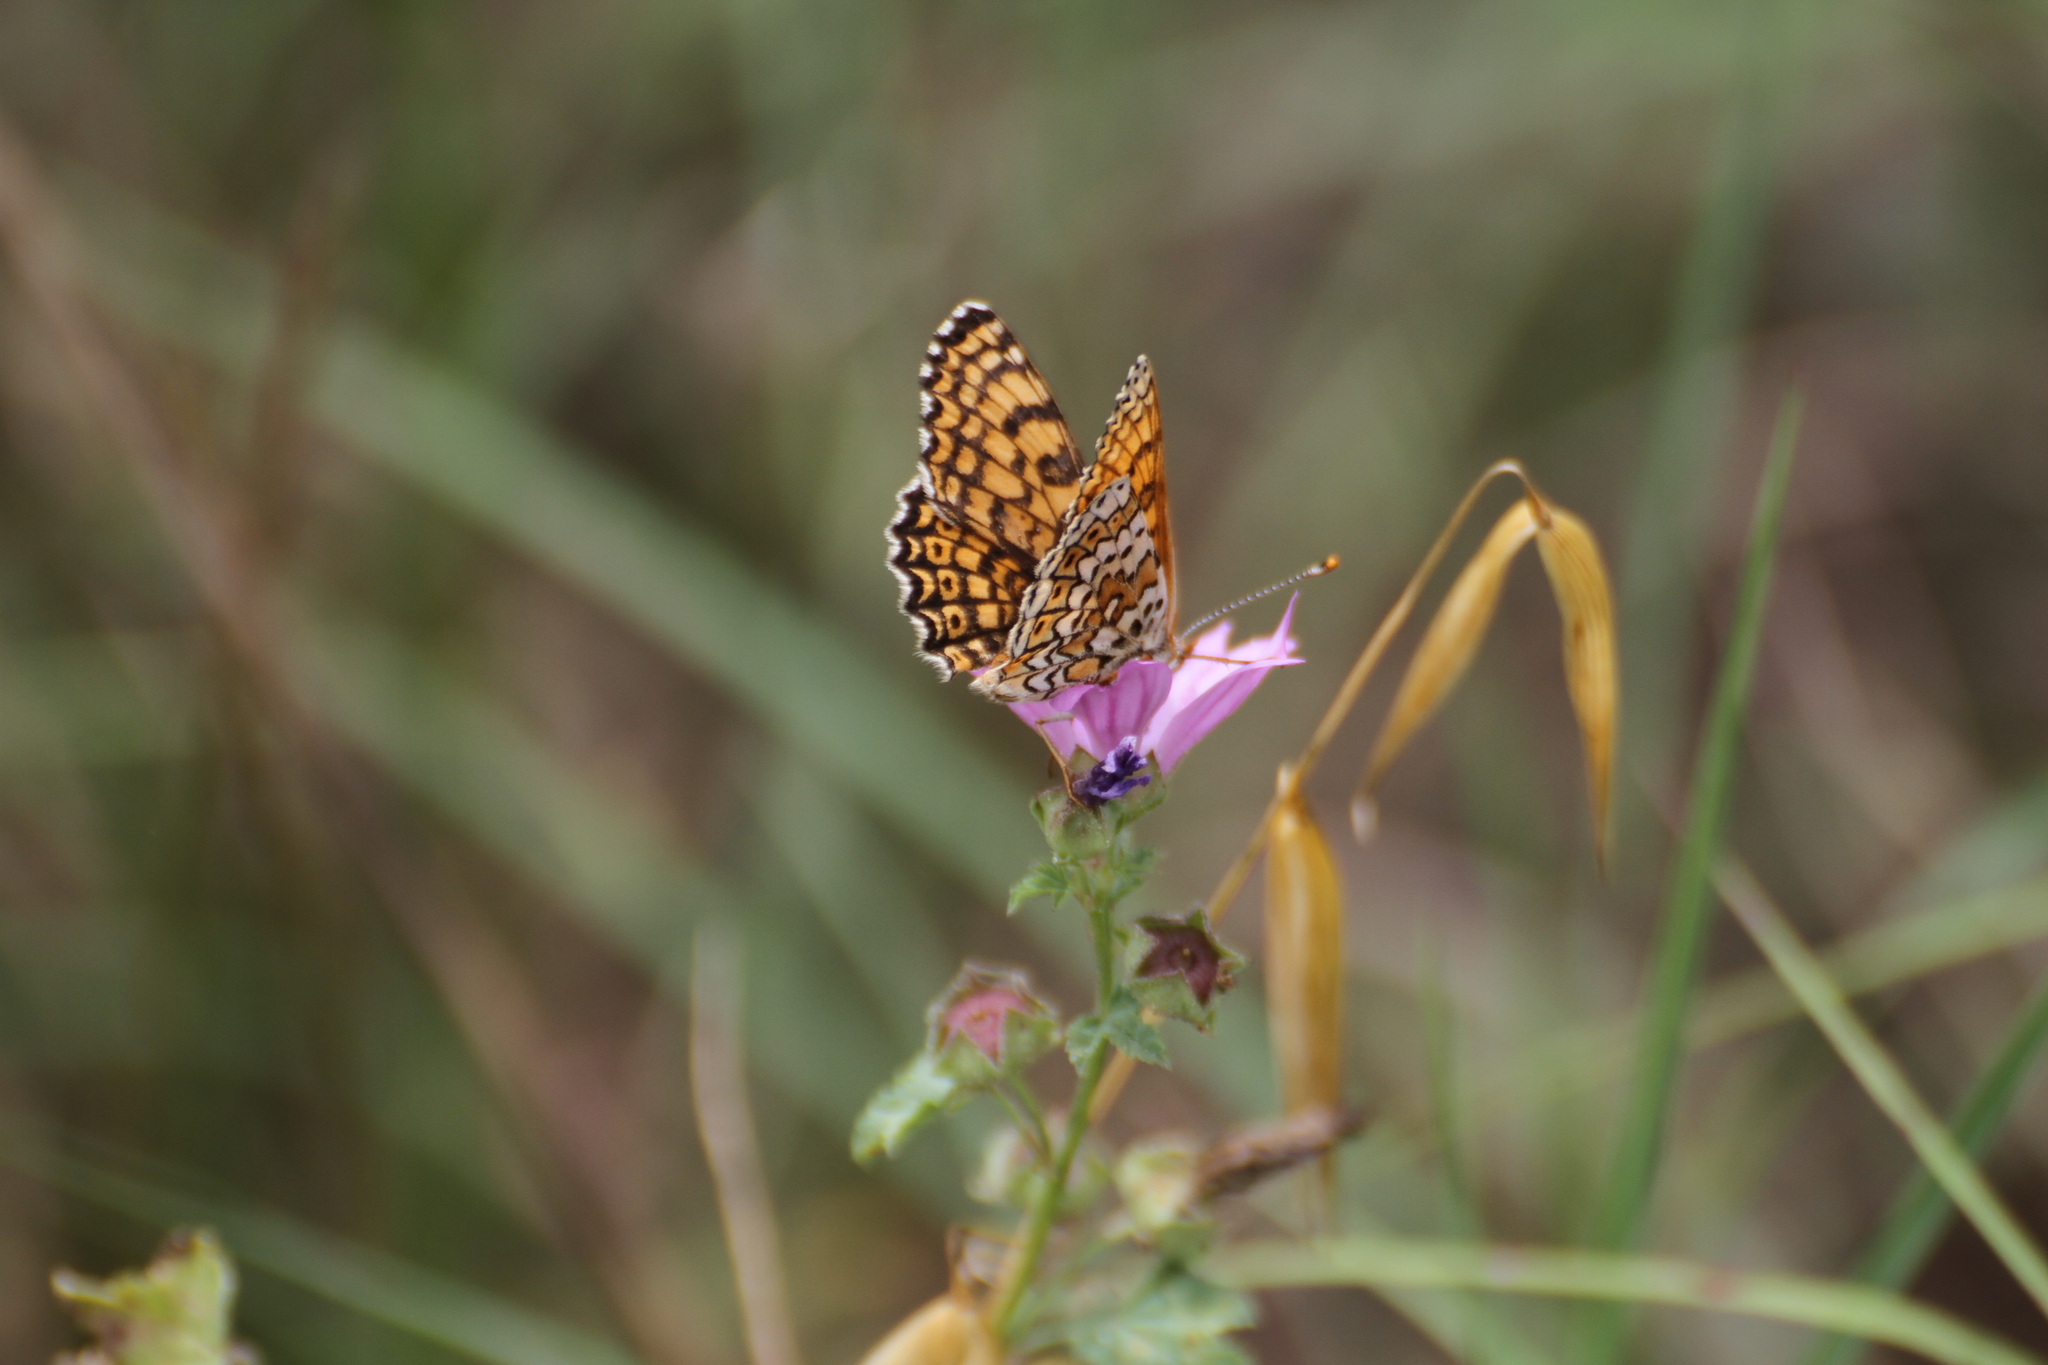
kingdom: Animalia
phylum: Arthropoda
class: Insecta
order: Lepidoptera
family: Nymphalidae
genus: Melitaea
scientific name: Melitaea cinxia
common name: Glanville fritillary
